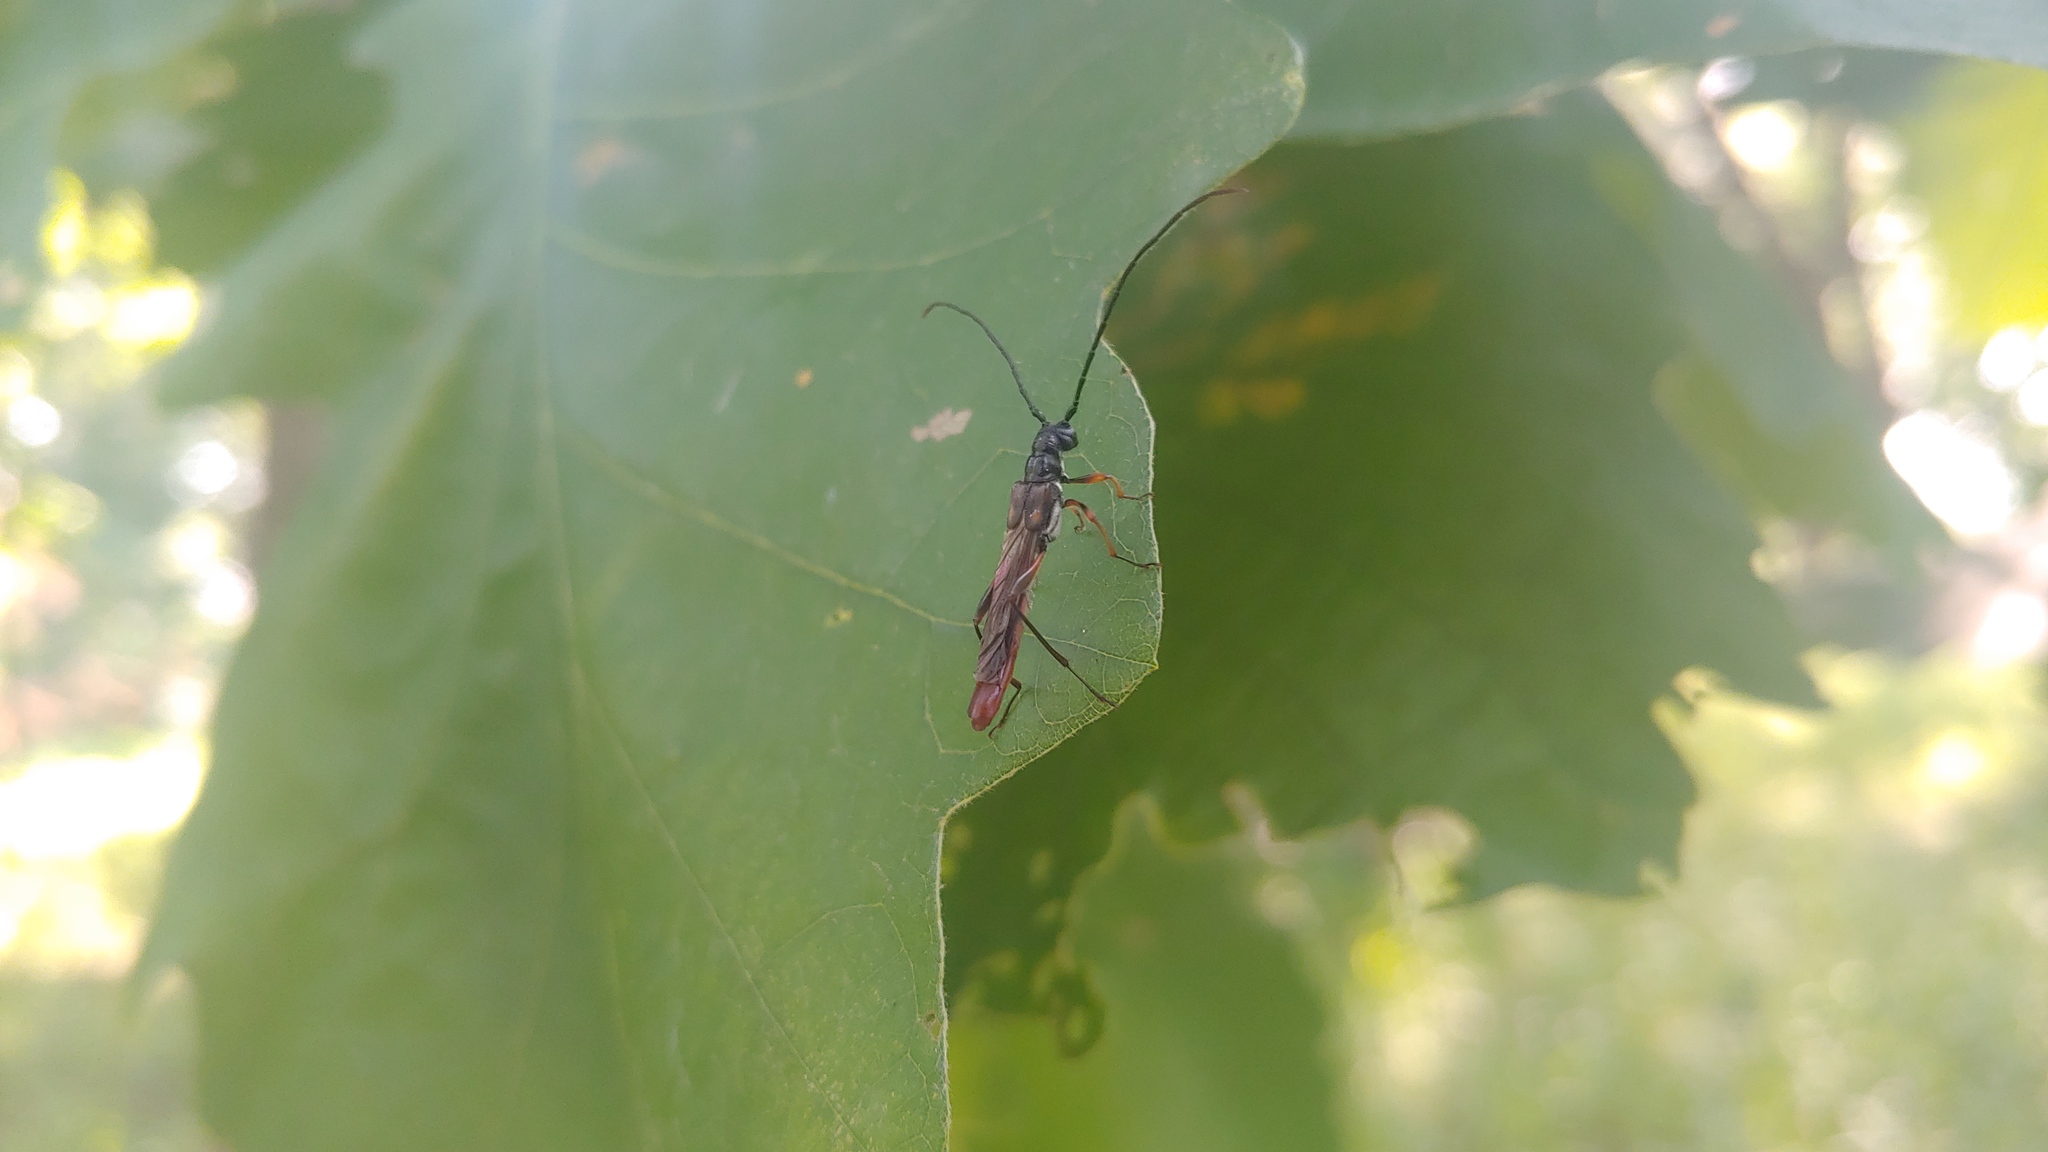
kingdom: Animalia
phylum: Arthropoda
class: Insecta
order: Coleoptera
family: Cerambycidae
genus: Necydalis
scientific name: Necydalis mellita
